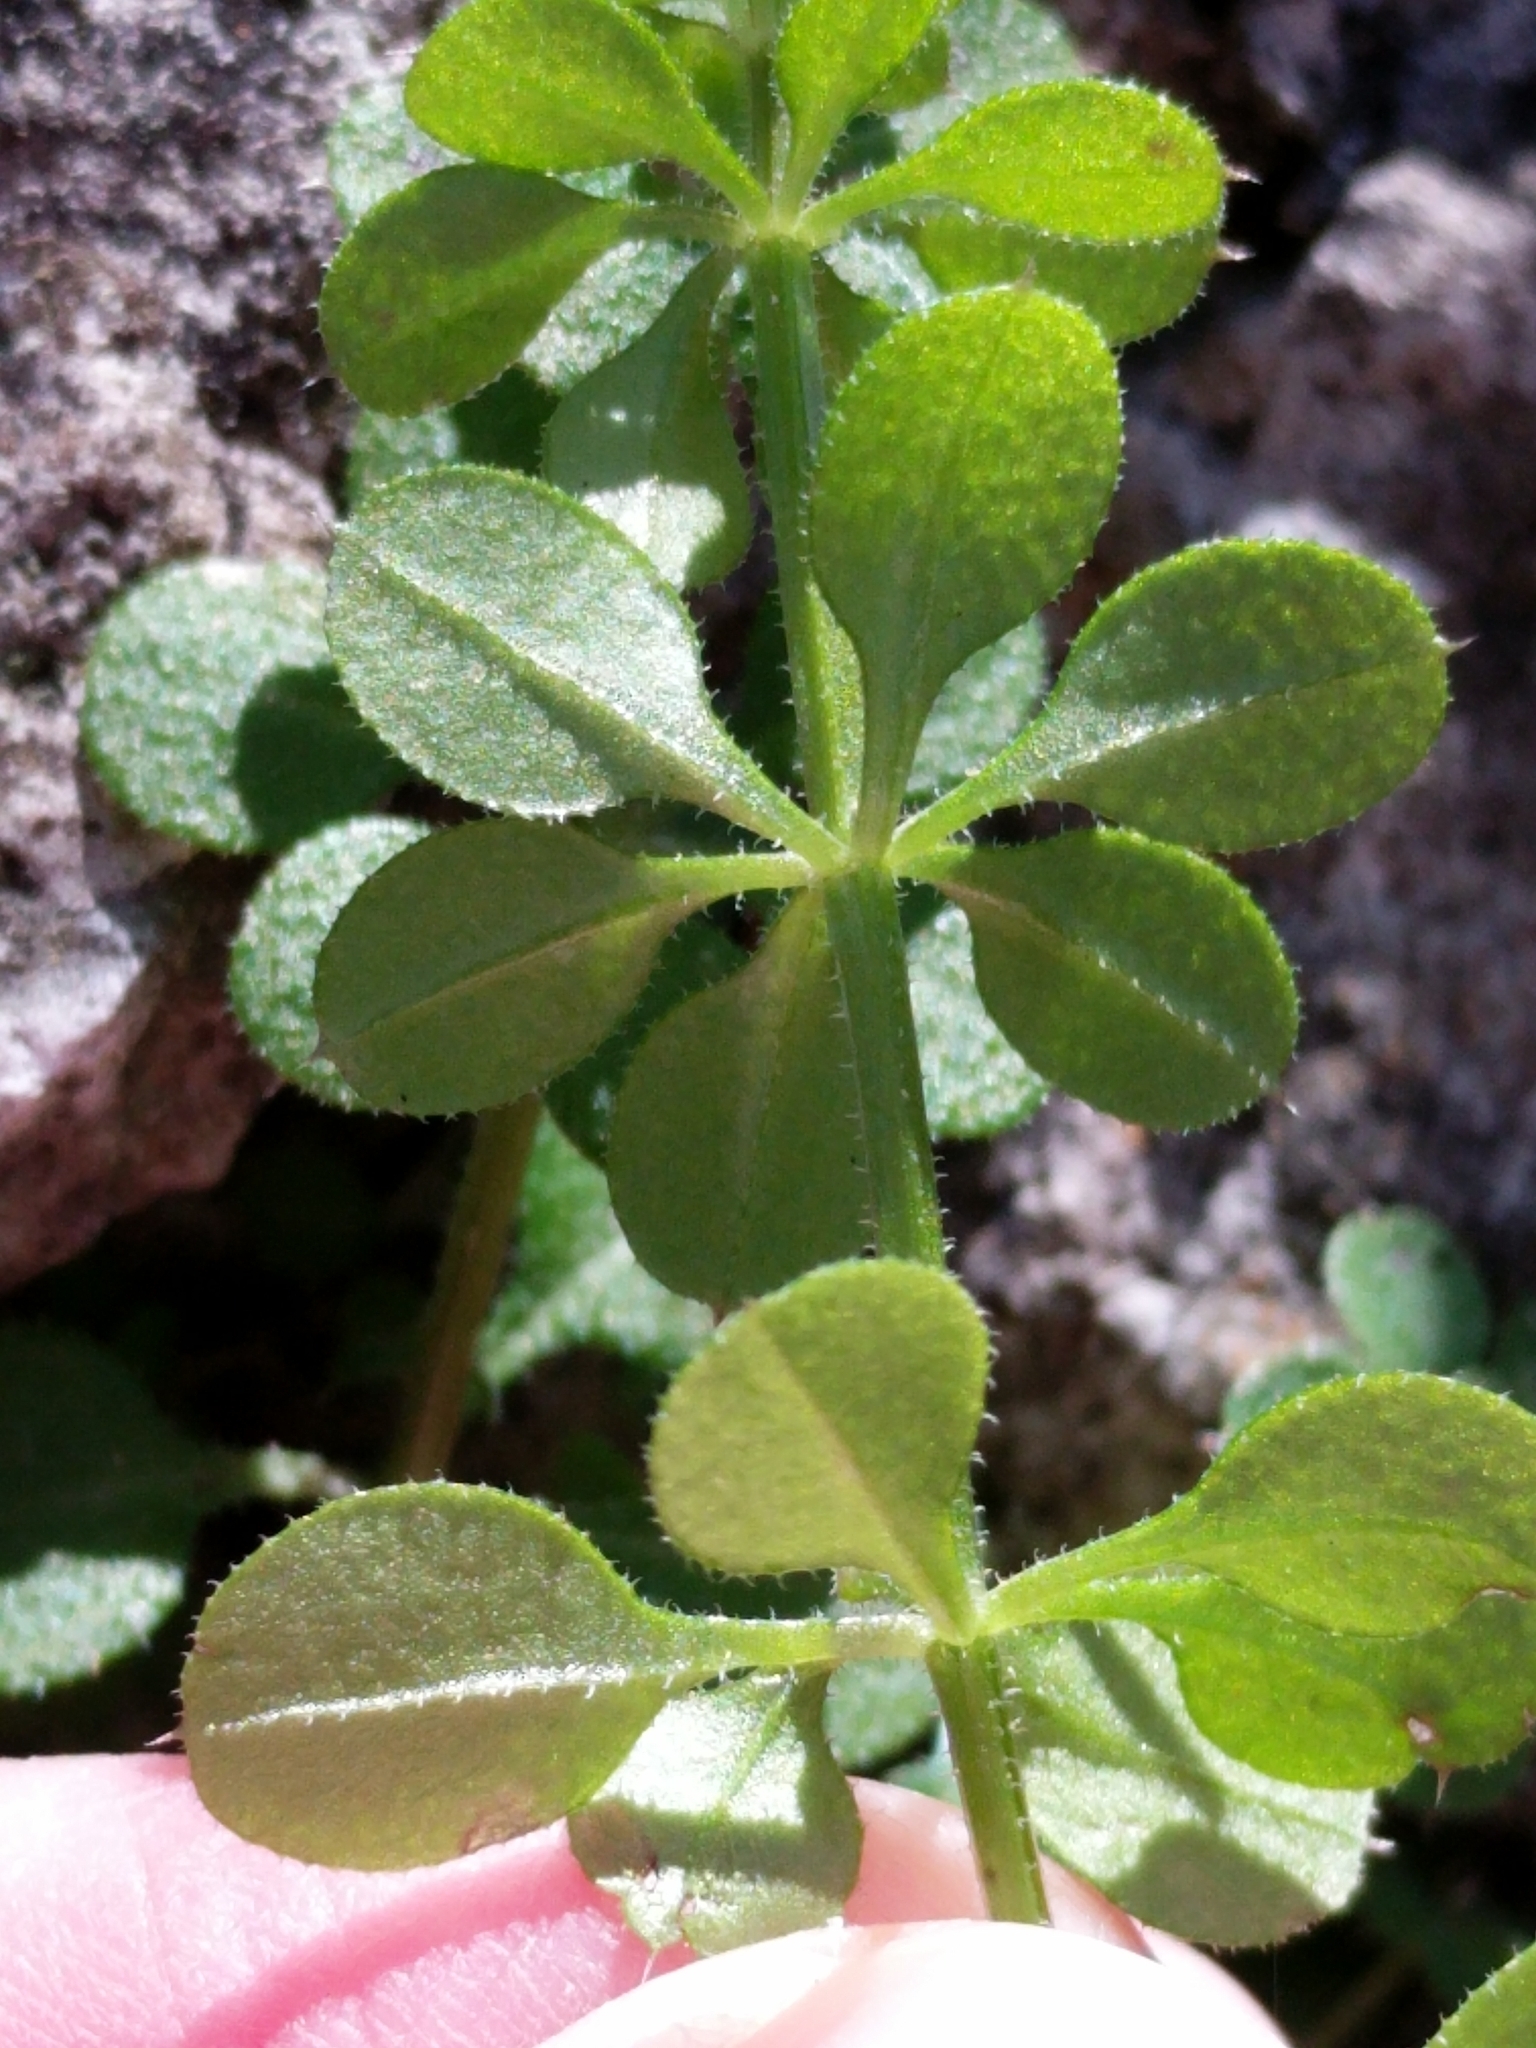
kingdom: Plantae
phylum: Tracheophyta
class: Magnoliopsida
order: Gentianales
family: Rubiaceae
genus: Galium
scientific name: Galium aparine
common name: Cleavers
